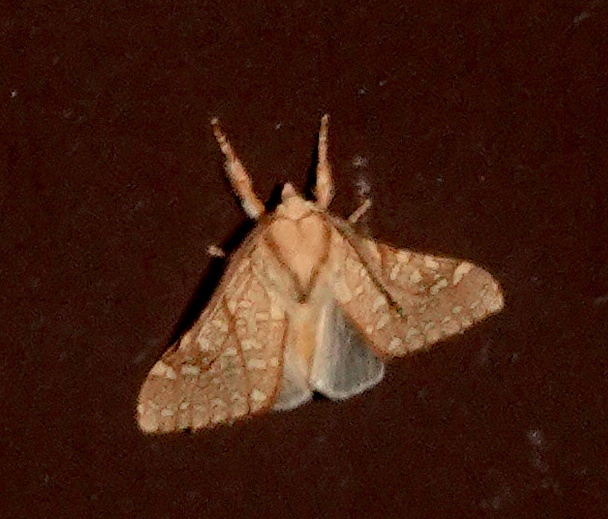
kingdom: Animalia
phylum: Arthropoda
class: Insecta
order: Lepidoptera
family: Erebidae
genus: Lophocampa
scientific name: Lophocampa mixta
